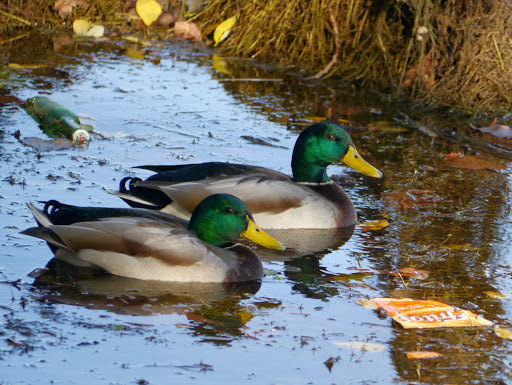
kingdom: Animalia
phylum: Chordata
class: Aves
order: Anseriformes
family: Anatidae
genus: Anas
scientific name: Anas platyrhynchos
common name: Mallard
